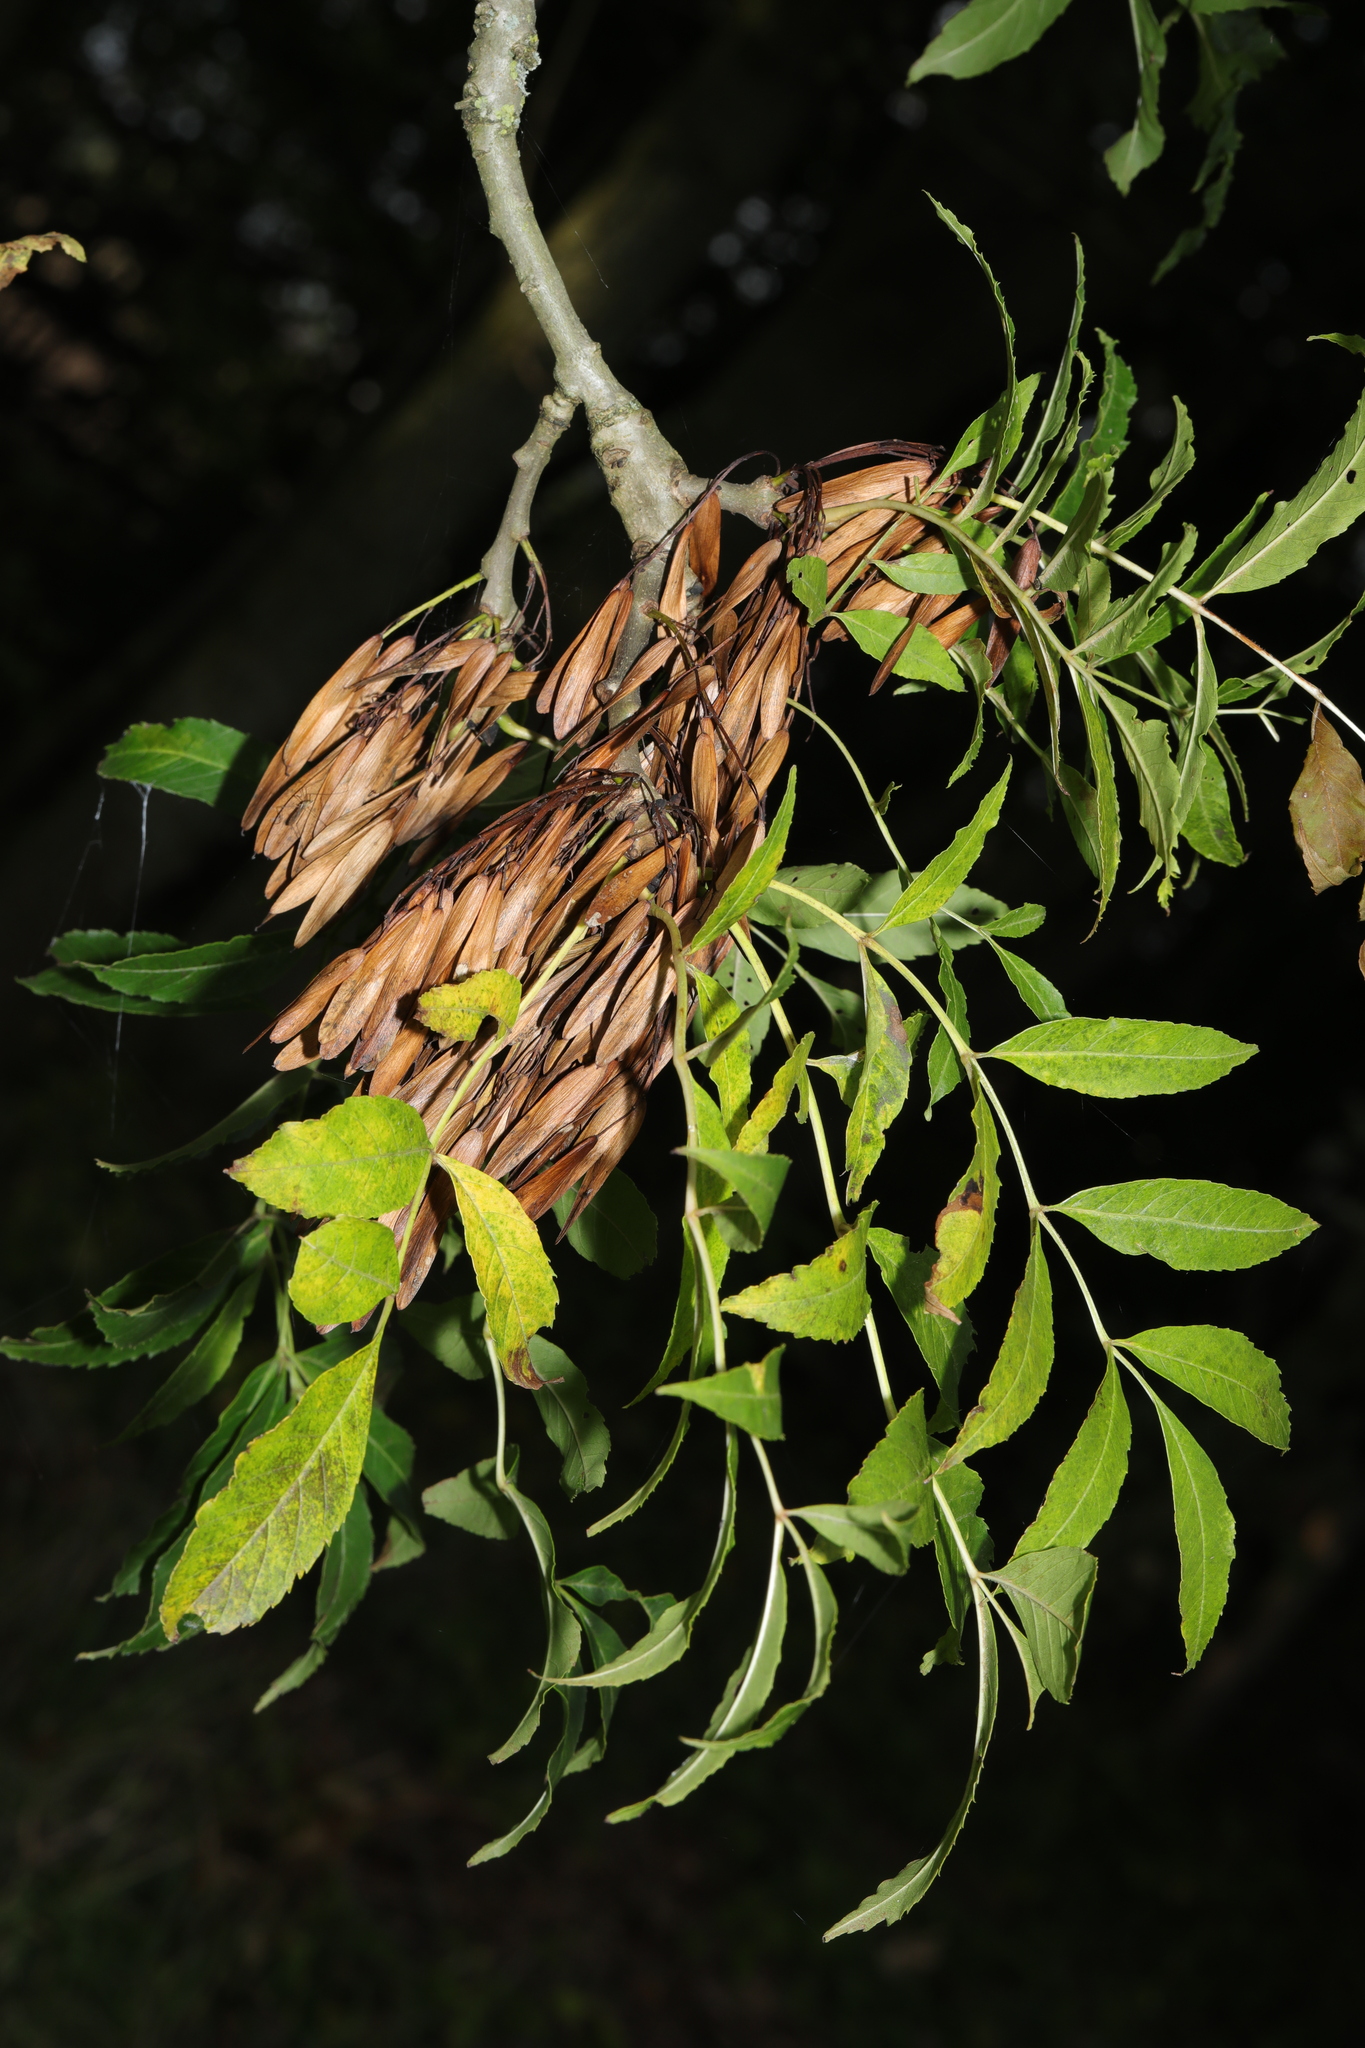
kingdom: Plantae
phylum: Tracheophyta
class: Magnoliopsida
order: Lamiales
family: Oleaceae
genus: Fraxinus
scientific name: Fraxinus excelsior
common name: European ash
